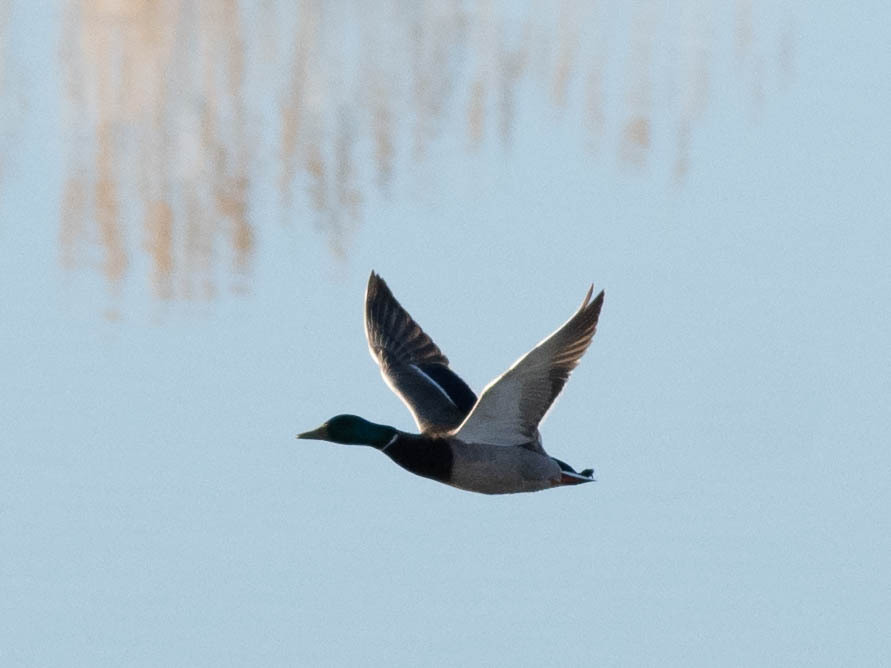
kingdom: Animalia
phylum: Chordata
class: Aves
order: Anseriformes
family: Anatidae
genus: Anas
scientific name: Anas platyrhynchos
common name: Mallard
